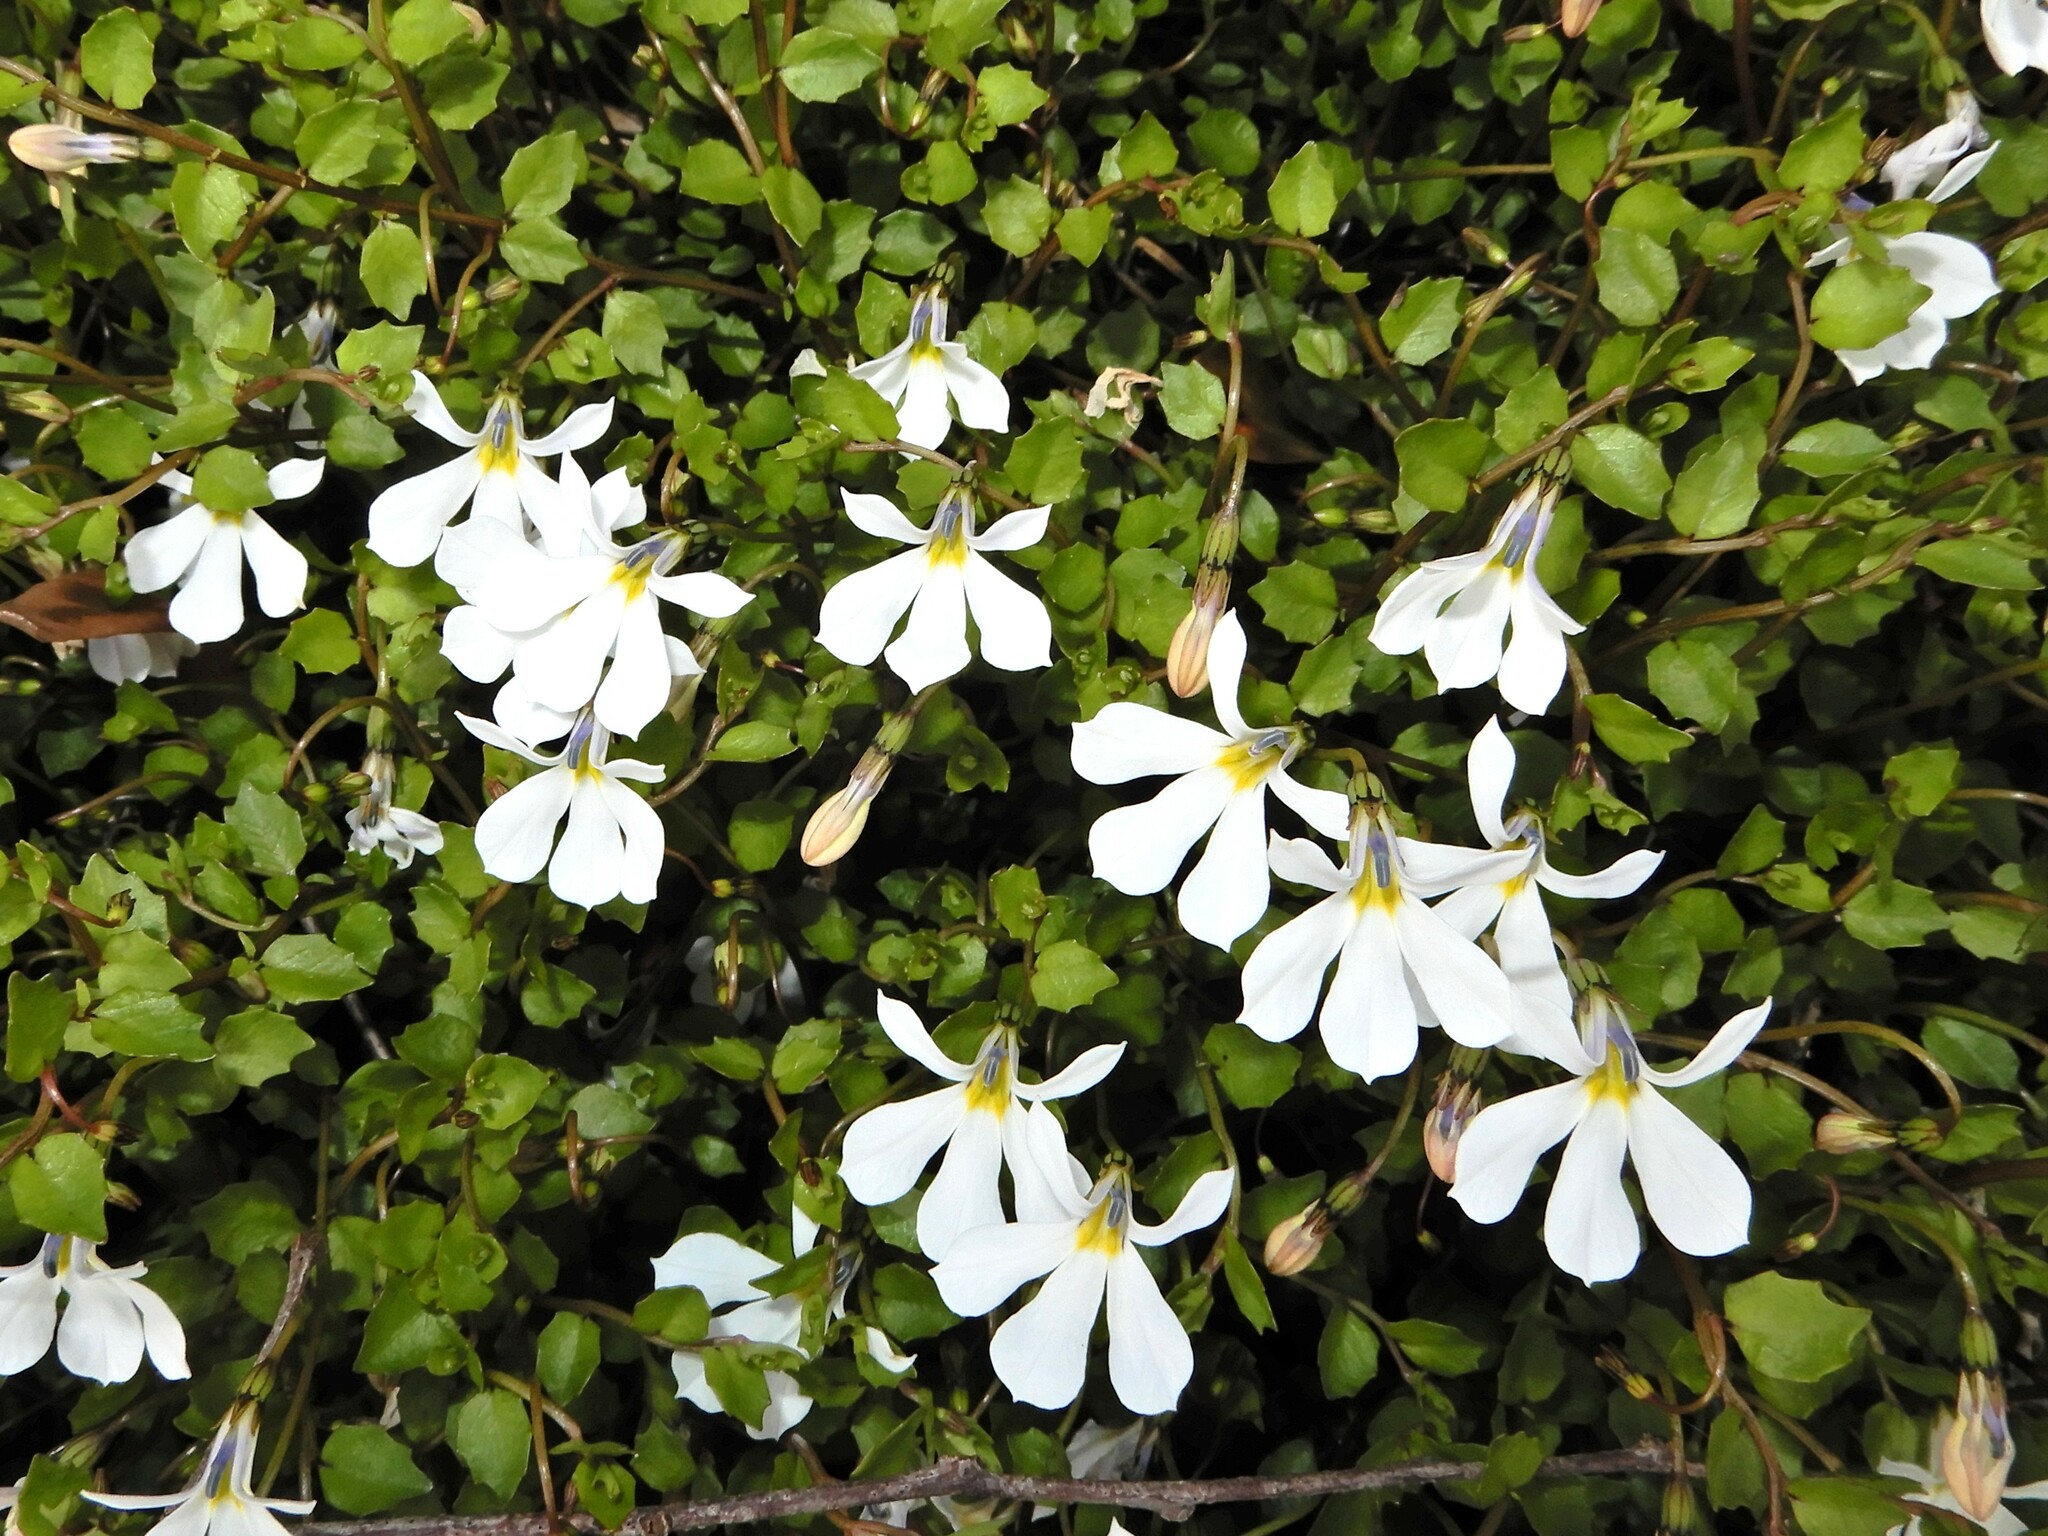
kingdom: Plantae
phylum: Tracheophyta
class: Magnoliopsida
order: Asterales
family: Campanulaceae
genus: Lobelia
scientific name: Lobelia angulata
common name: Lawn lobelia
